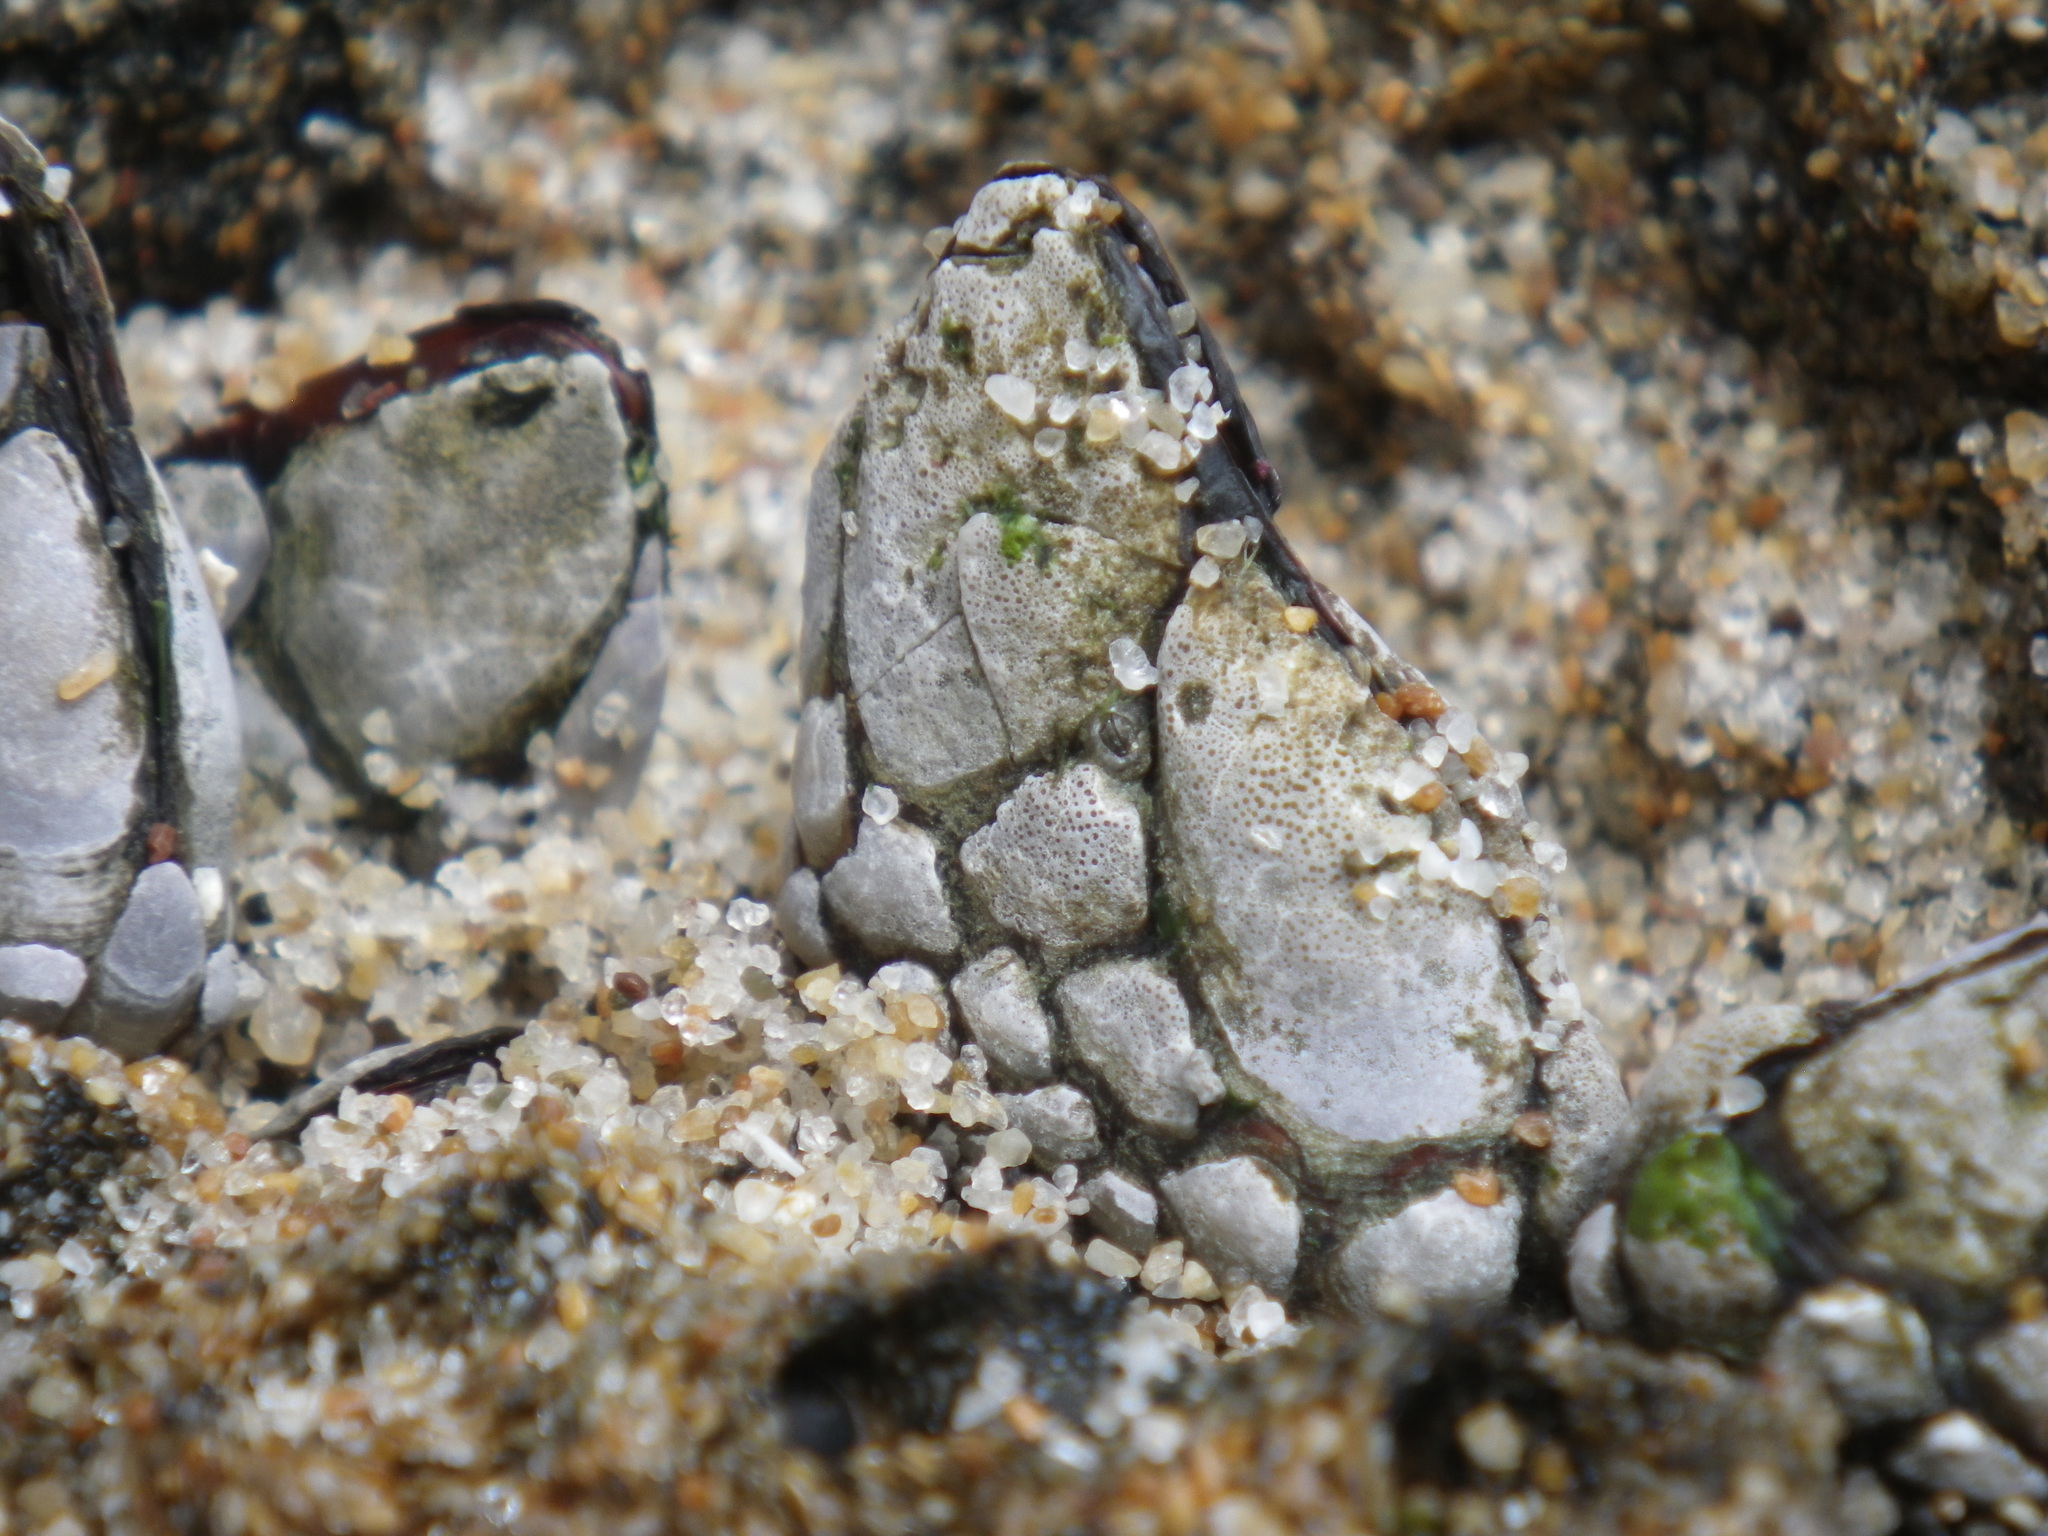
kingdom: Animalia
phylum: Arthropoda
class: Maxillopoda
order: Pedunculata
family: Pollicipedidae
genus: Pollicipes
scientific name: Pollicipes polymerus
